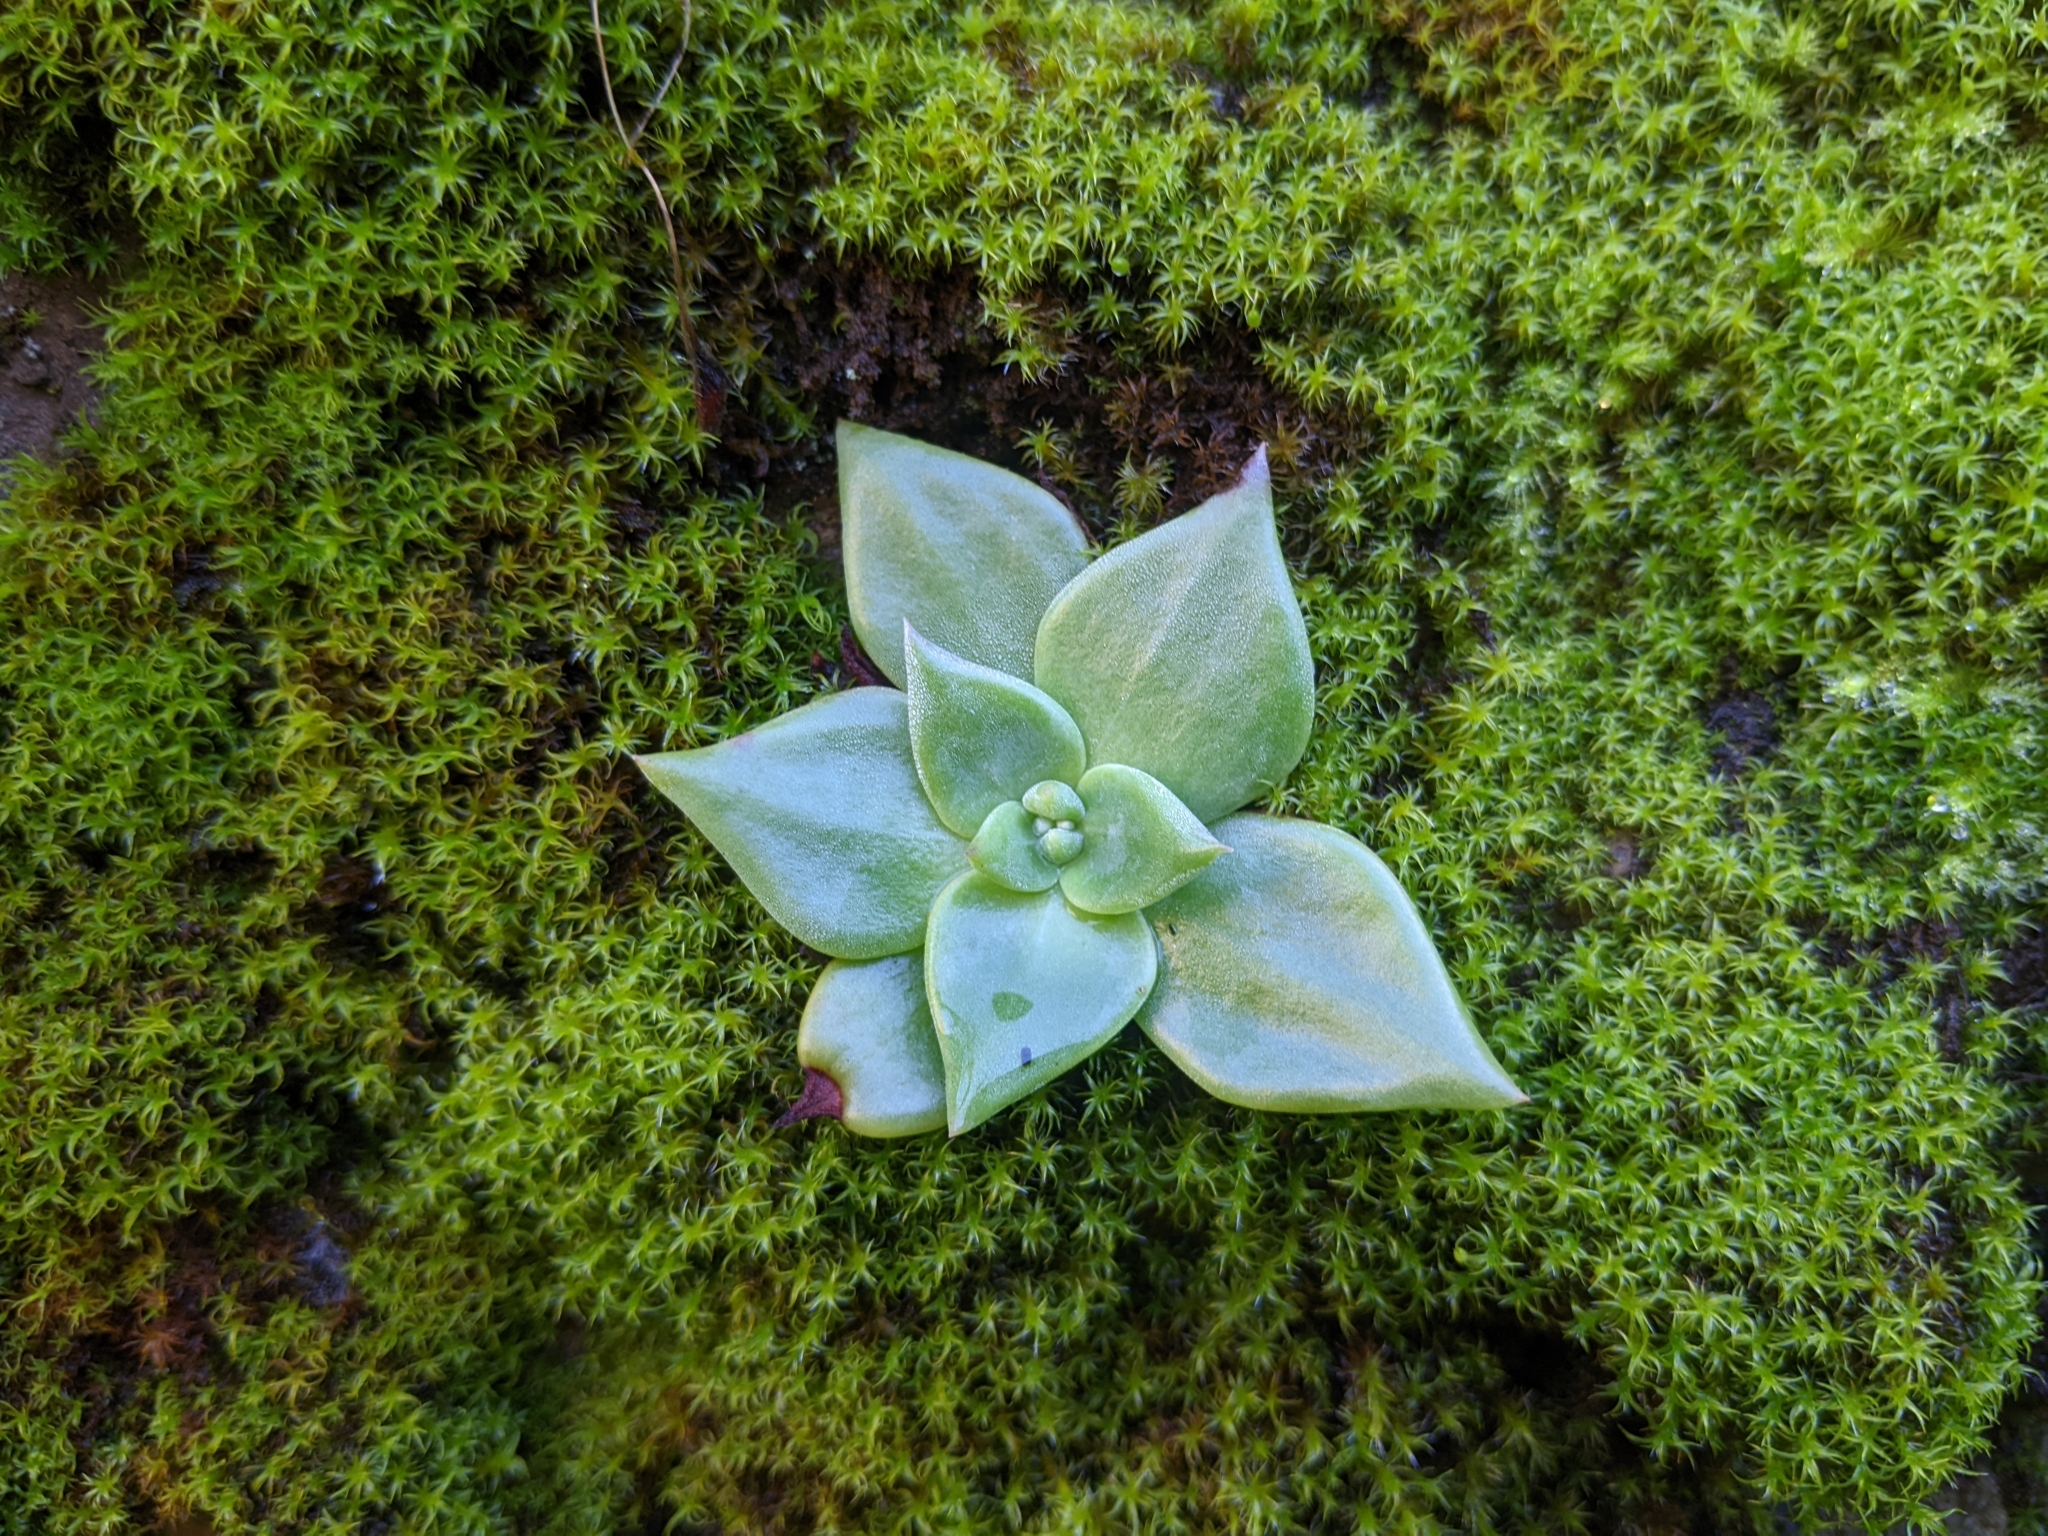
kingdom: Plantae
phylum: Tracheophyta
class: Magnoliopsida
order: Saxifragales
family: Crassulaceae
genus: Dudleya
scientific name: Dudleya cymosa
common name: Canyon dudleya
